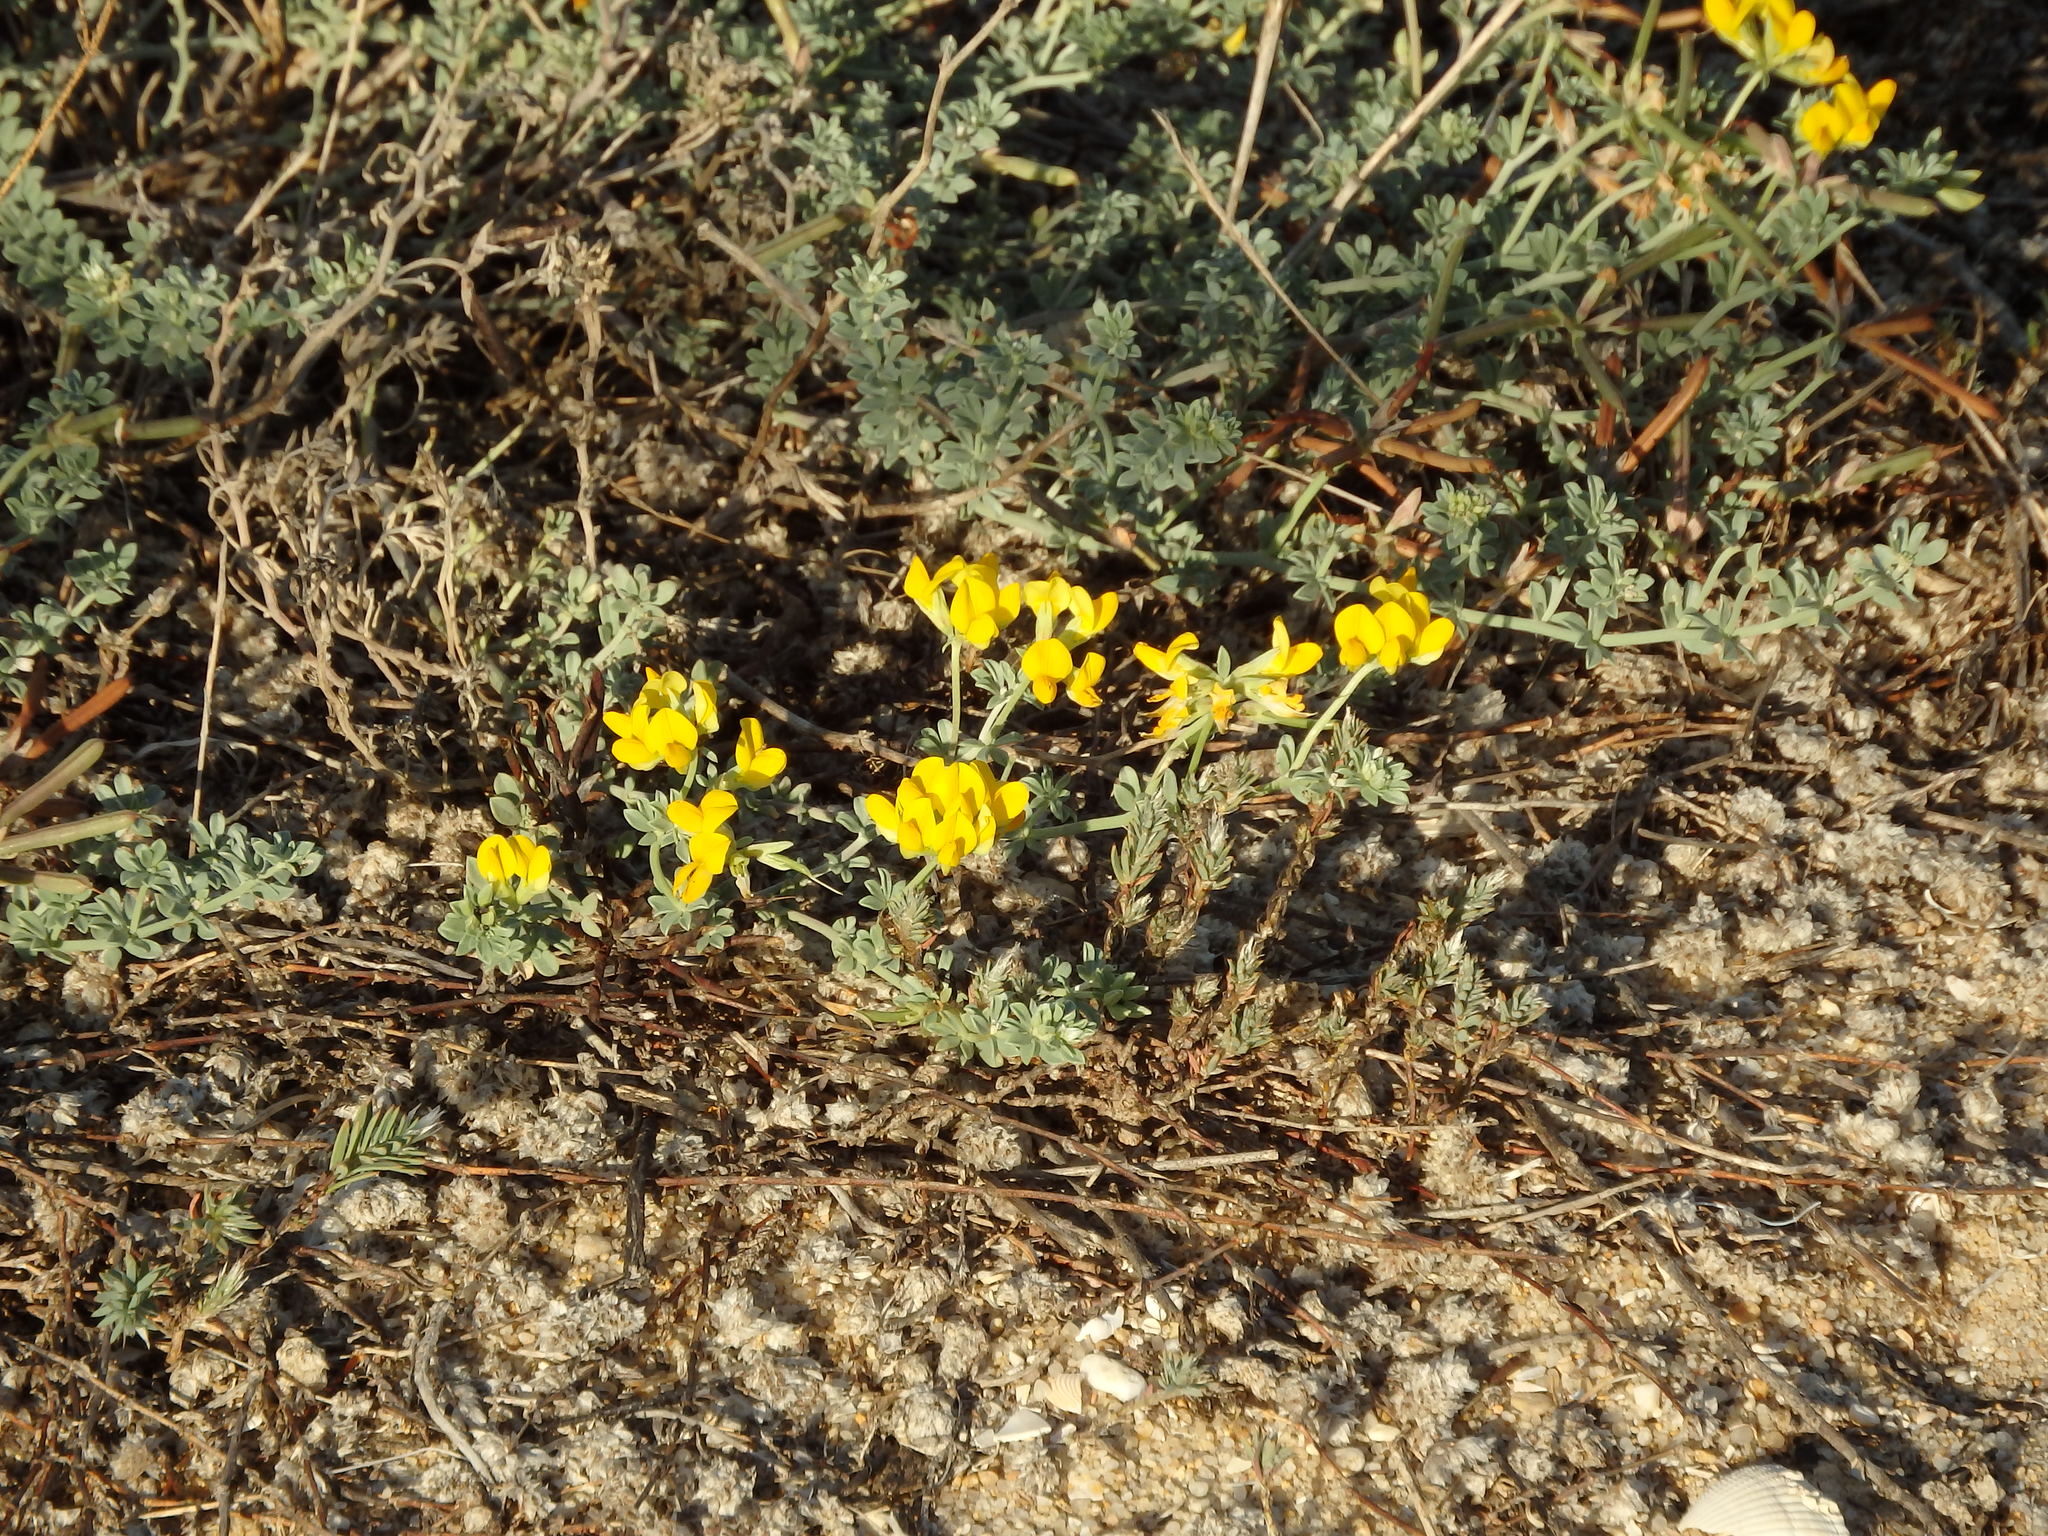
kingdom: Plantae
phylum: Tracheophyta
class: Magnoliopsida
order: Fabales
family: Fabaceae
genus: Lotus
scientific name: Lotus creticus
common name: Cretan bird's-foot trefoil
